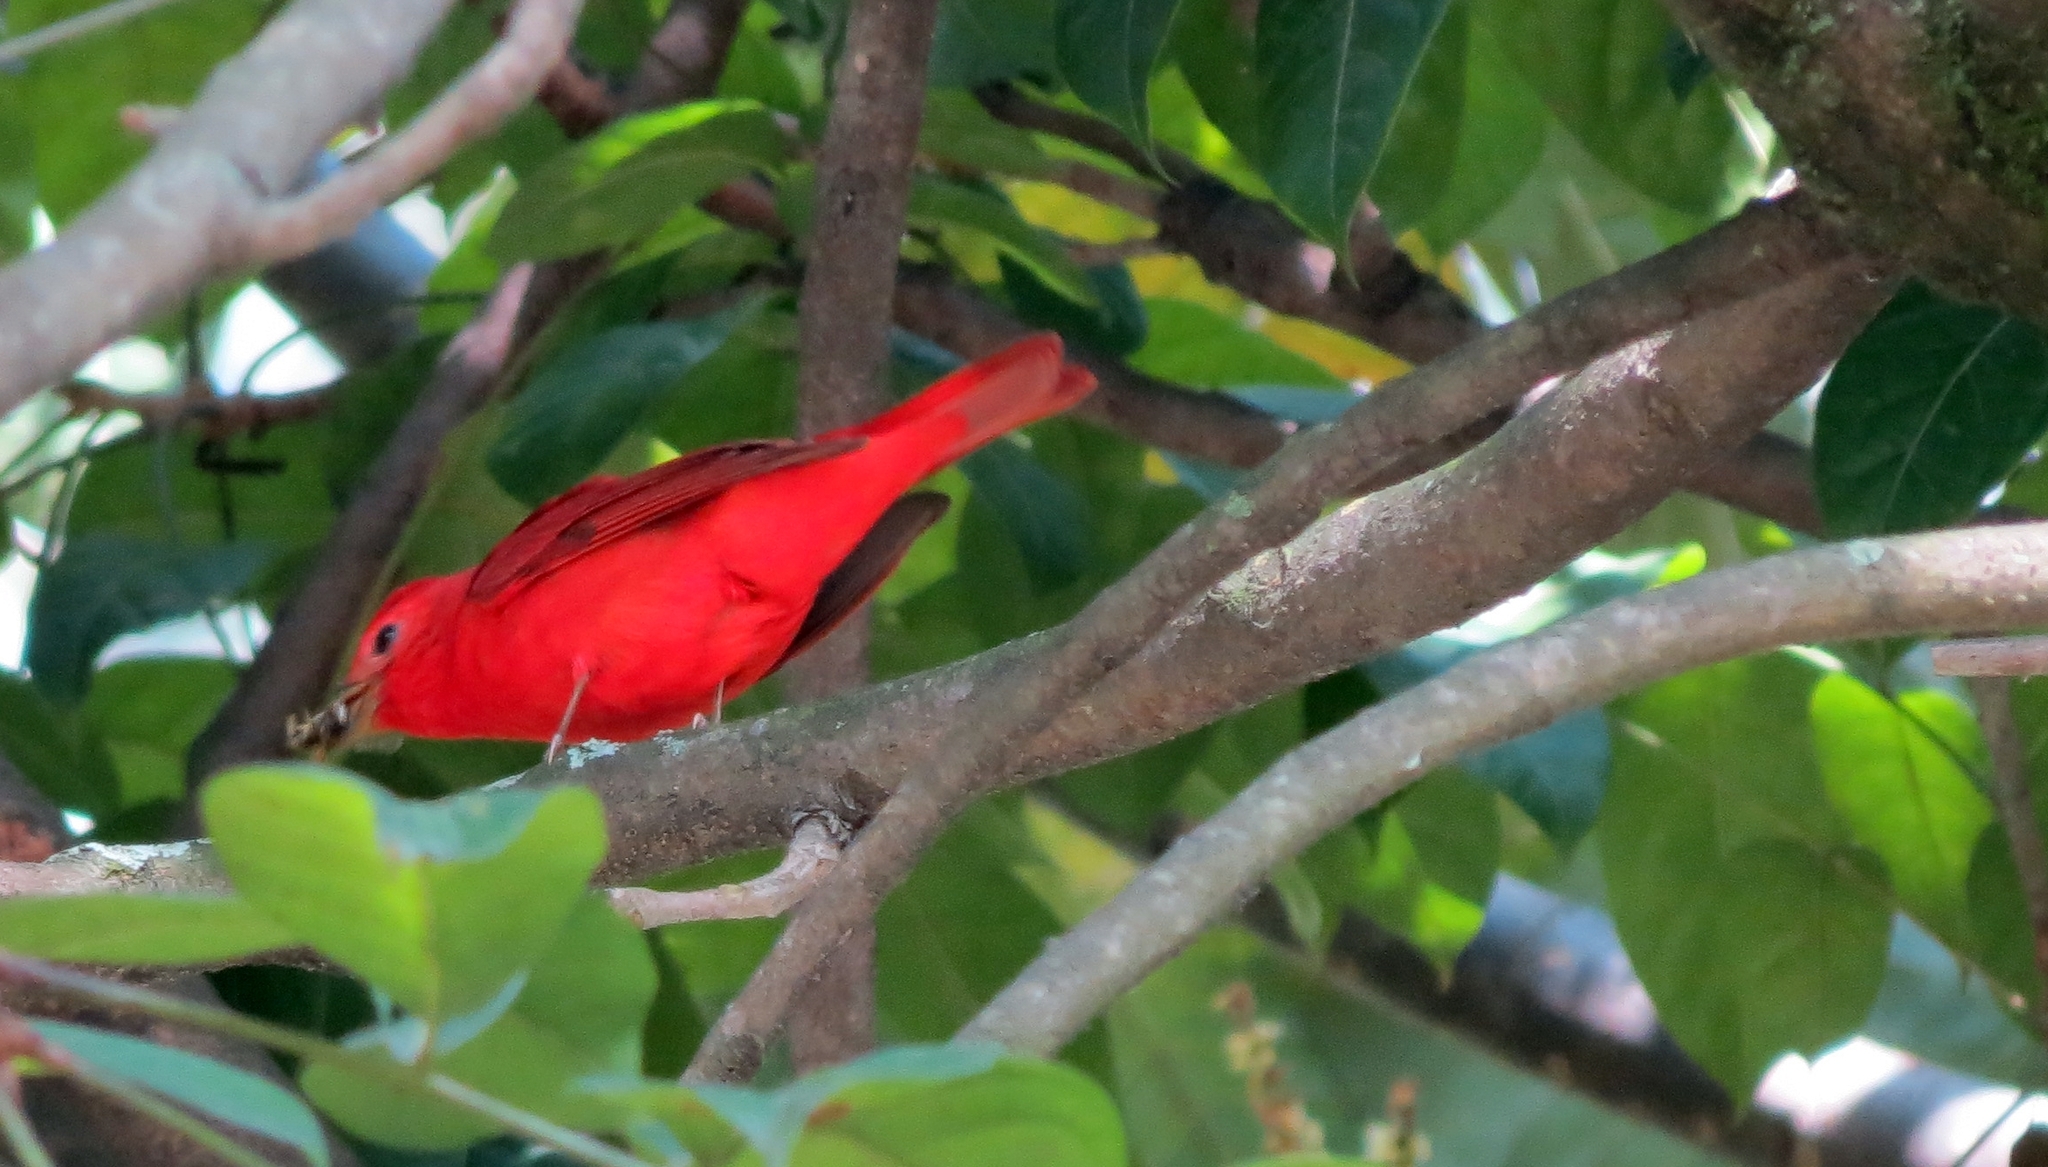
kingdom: Animalia
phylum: Chordata
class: Aves
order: Passeriformes
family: Cardinalidae
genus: Piranga
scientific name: Piranga rubra
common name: Summer tanager
